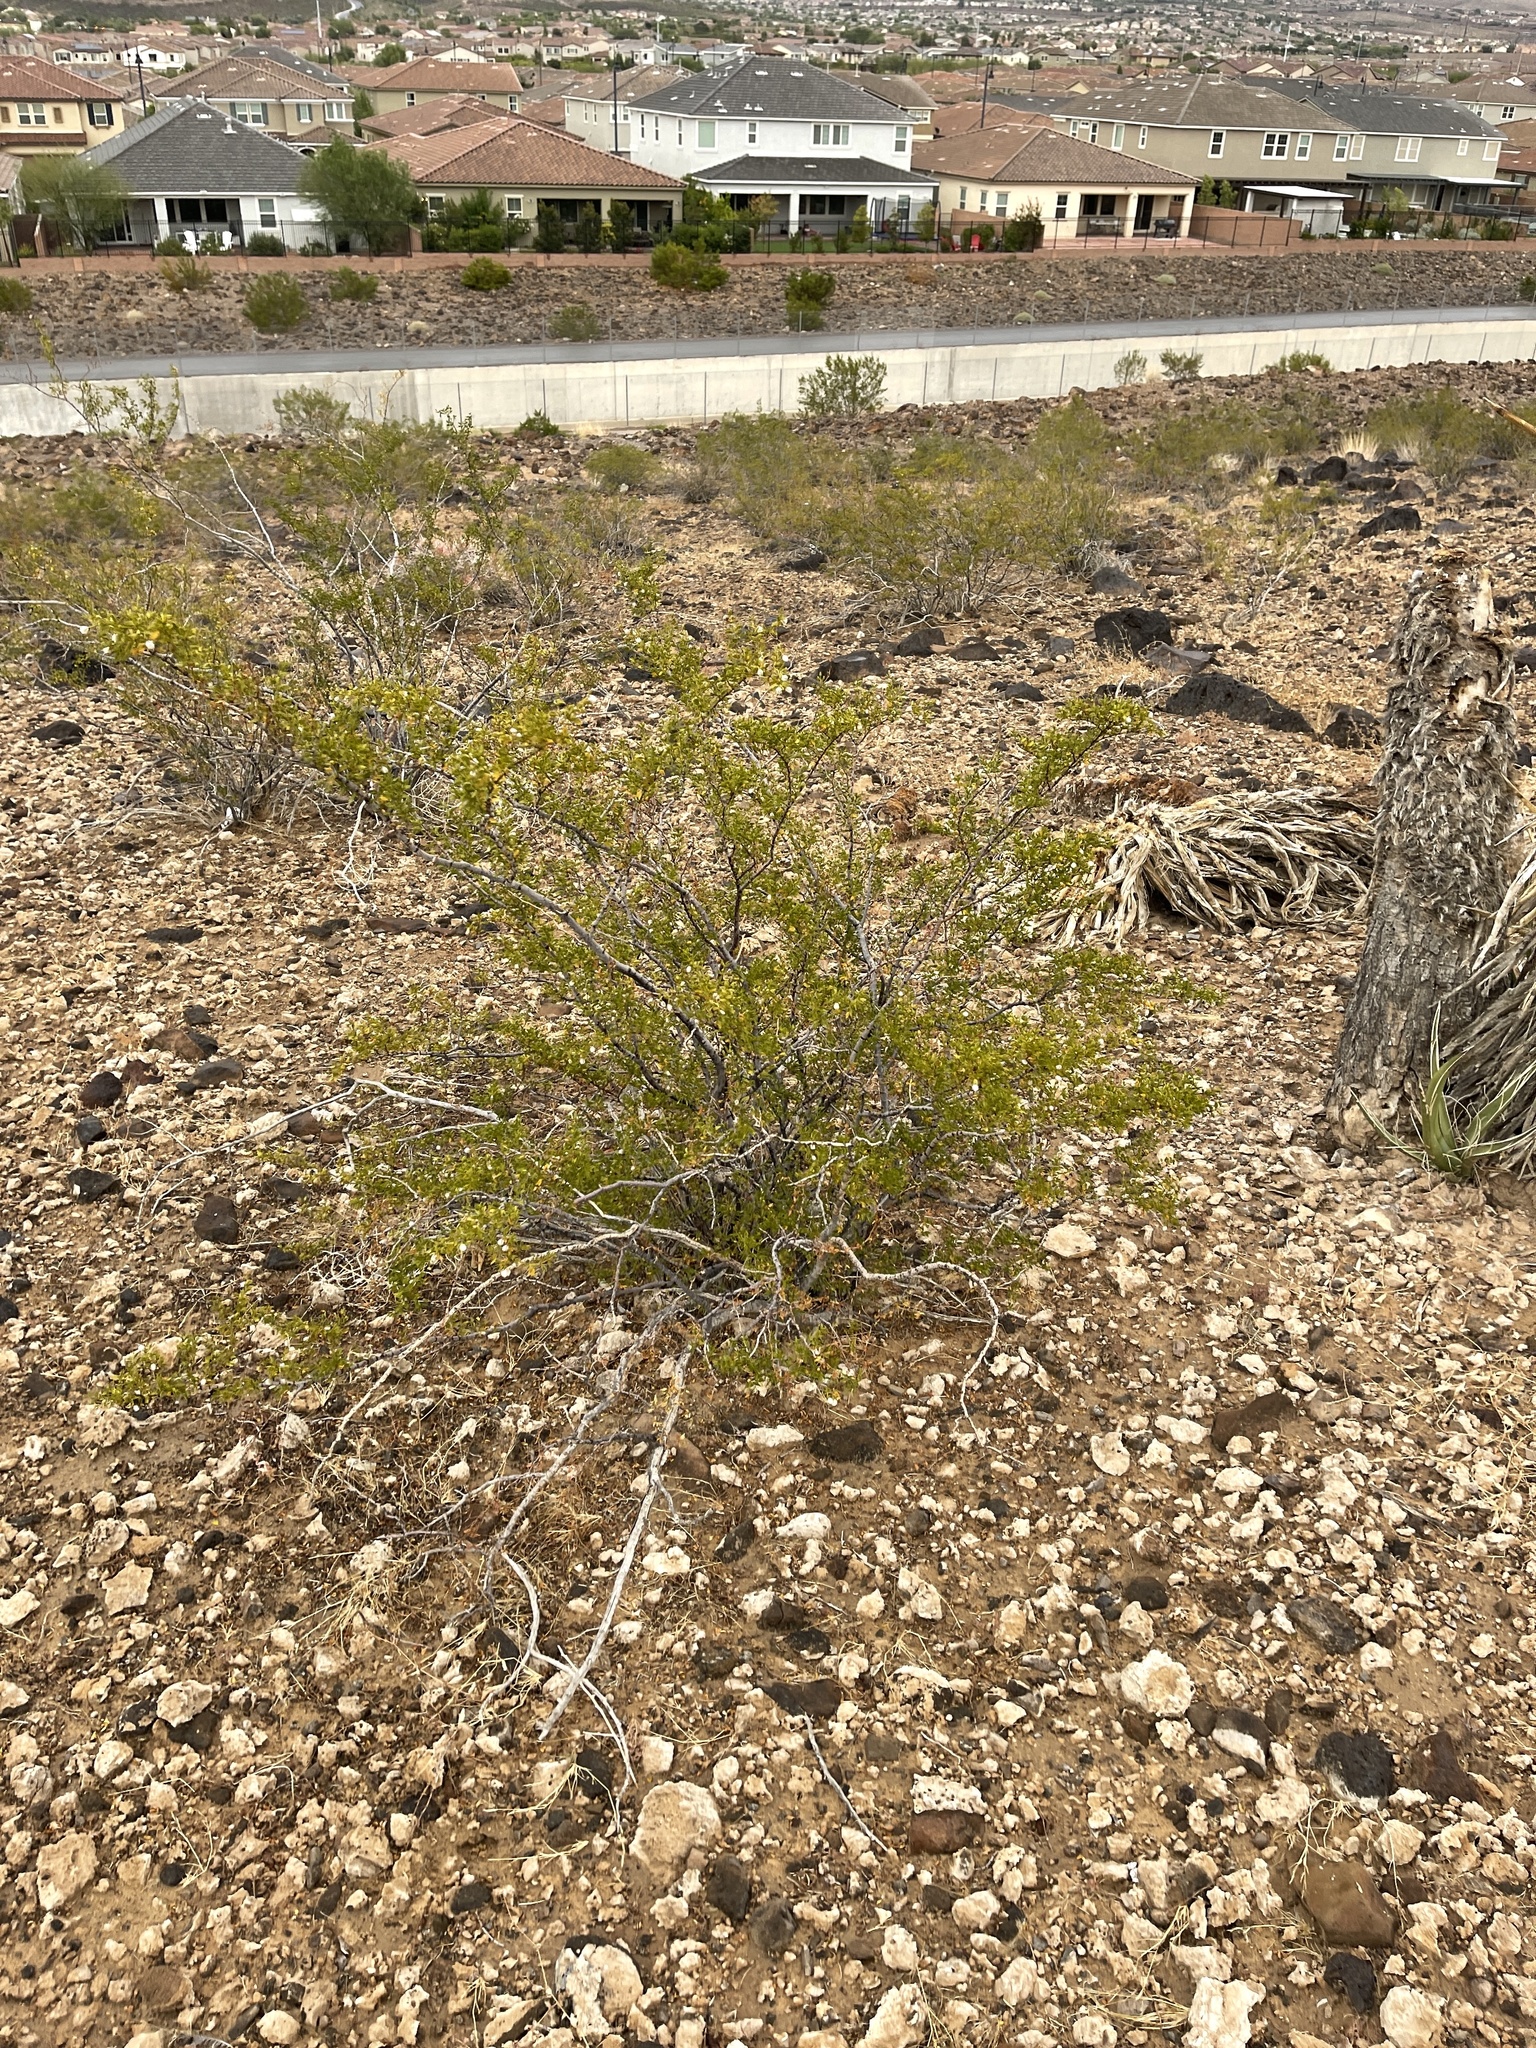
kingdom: Plantae
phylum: Tracheophyta
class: Magnoliopsida
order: Zygophyllales
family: Zygophyllaceae
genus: Larrea
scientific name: Larrea tridentata
